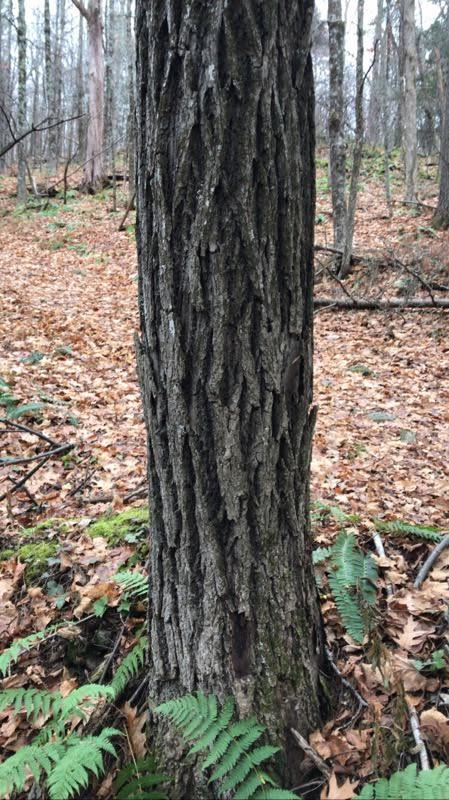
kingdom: Plantae
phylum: Tracheophyta
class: Magnoliopsida
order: Fagales
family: Juglandaceae
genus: Juglans
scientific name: Juglans cinerea
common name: Butternut
